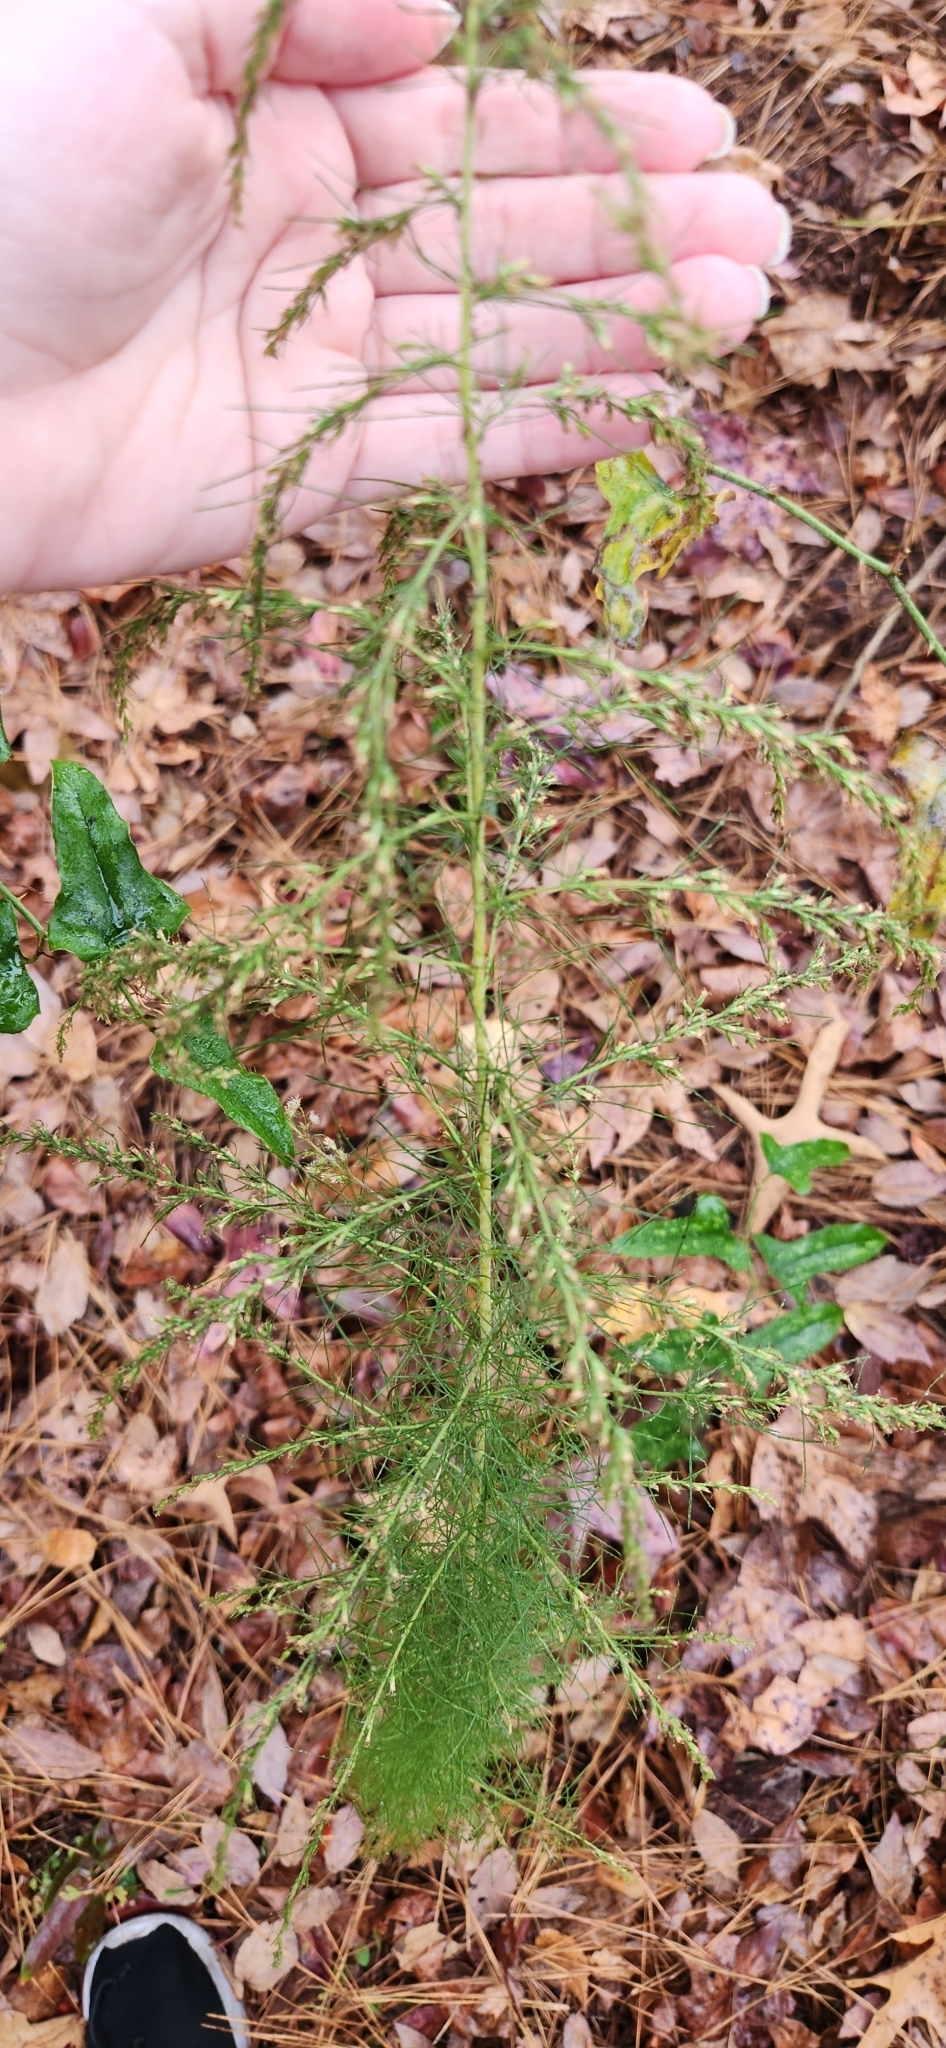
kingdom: Plantae
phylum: Tracheophyta
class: Magnoliopsida
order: Asterales
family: Asteraceae
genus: Eupatorium
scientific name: Eupatorium capillifolium
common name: Dog-fennel
